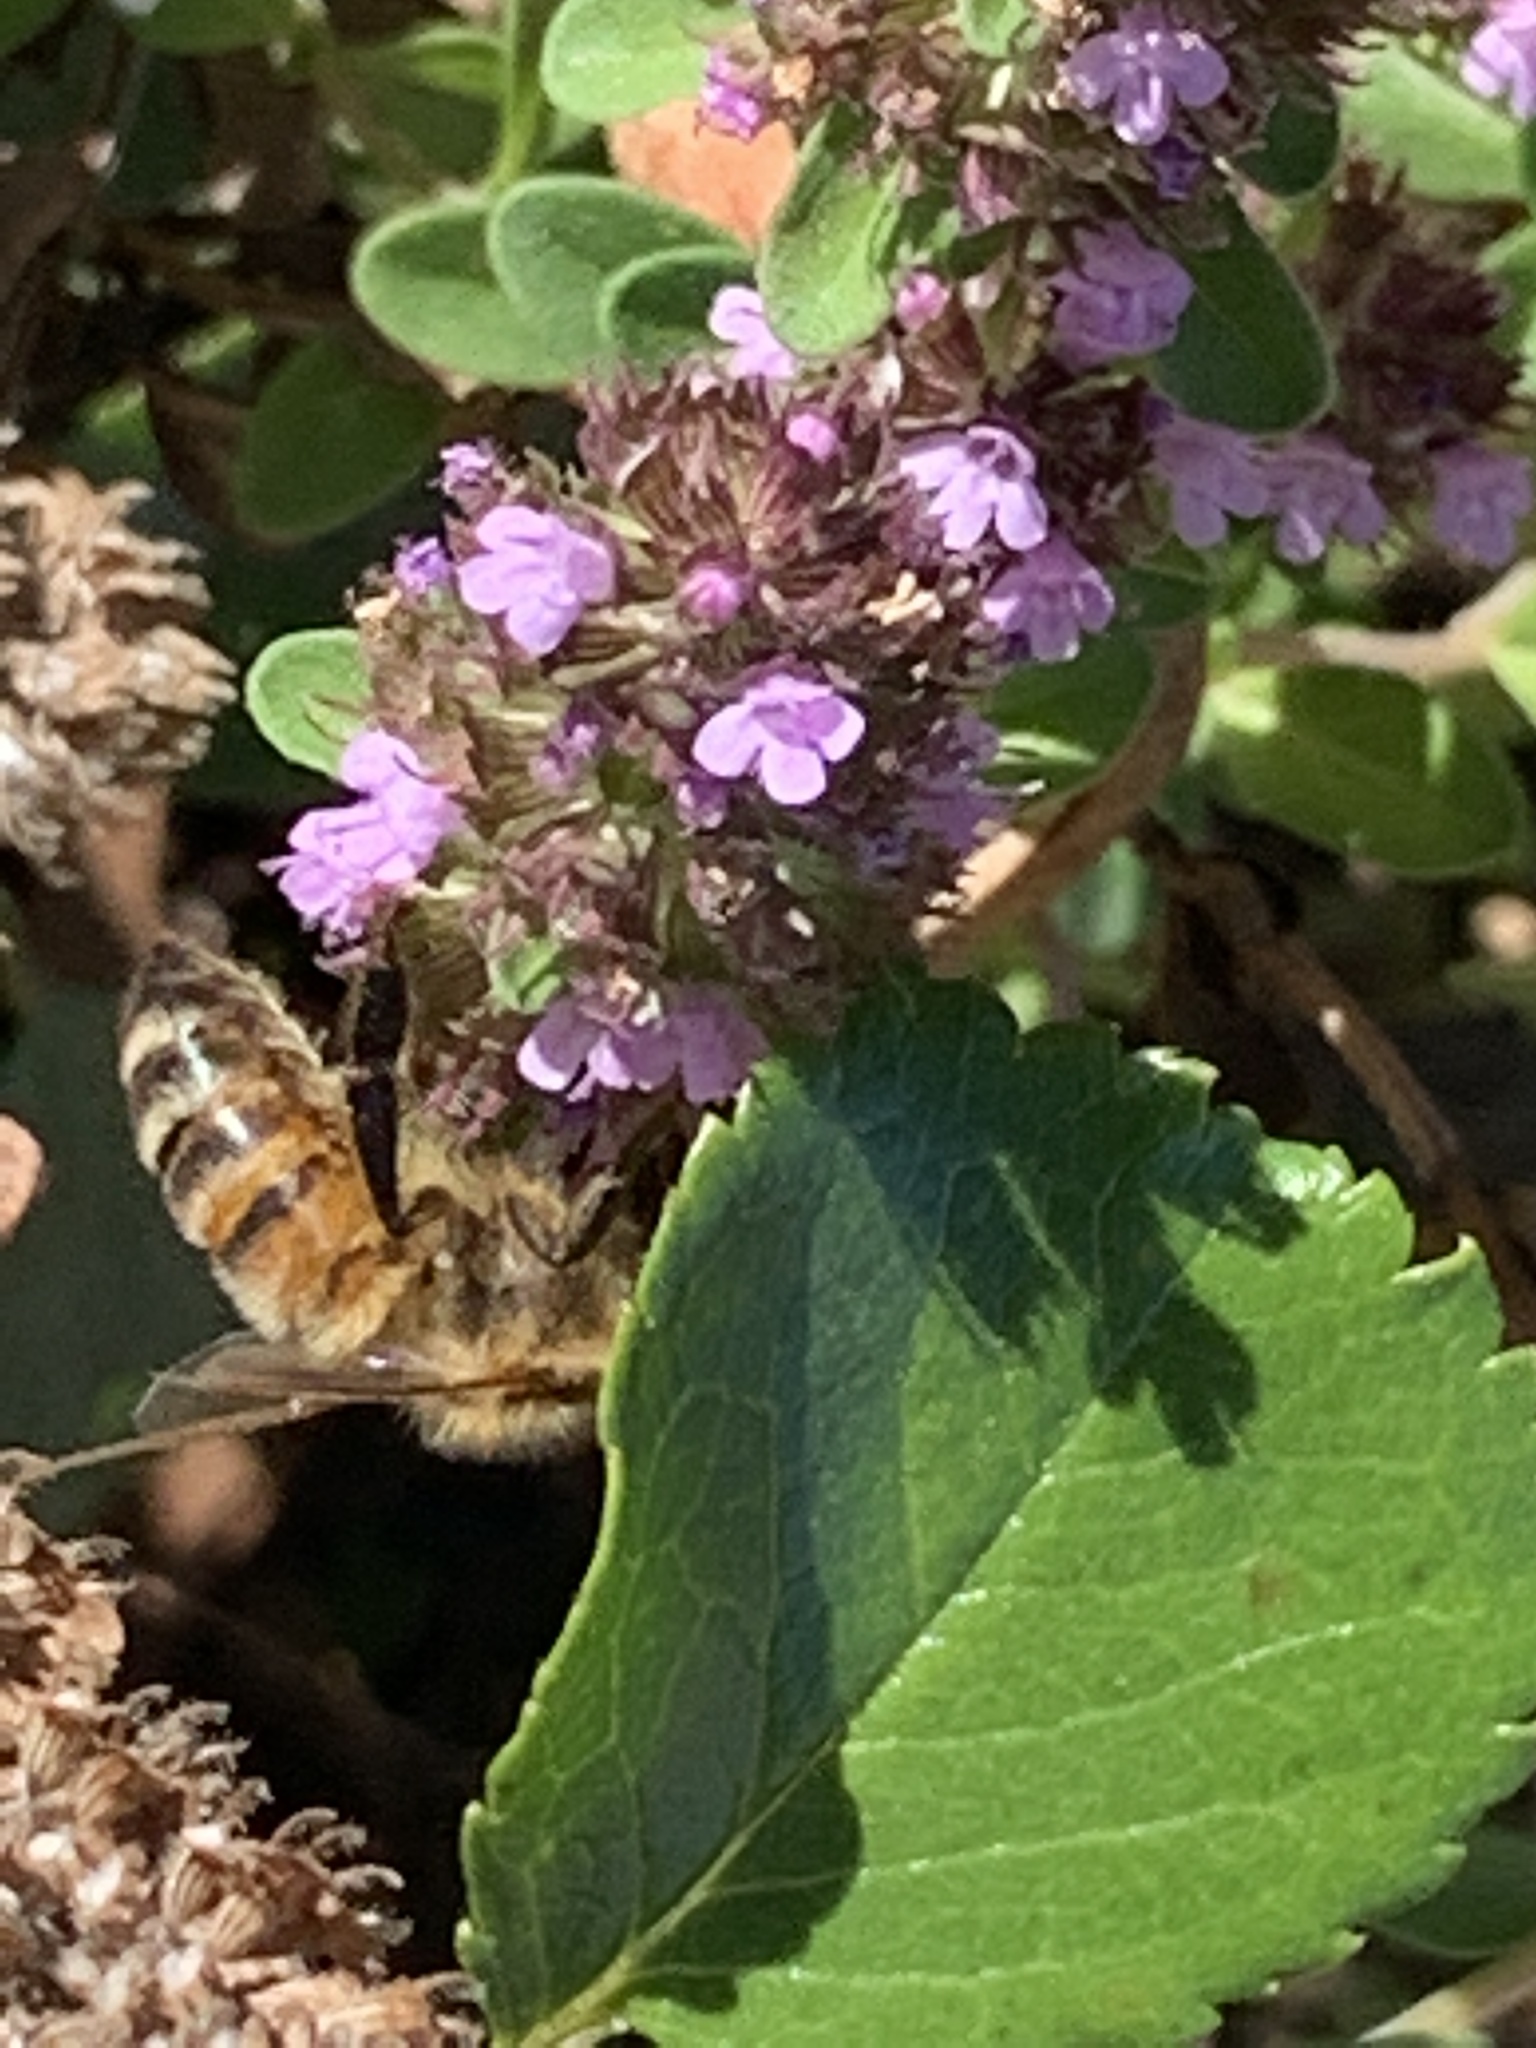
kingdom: Animalia
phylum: Arthropoda
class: Insecta
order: Hymenoptera
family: Apidae
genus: Apis
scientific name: Apis mellifera
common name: Honey bee
